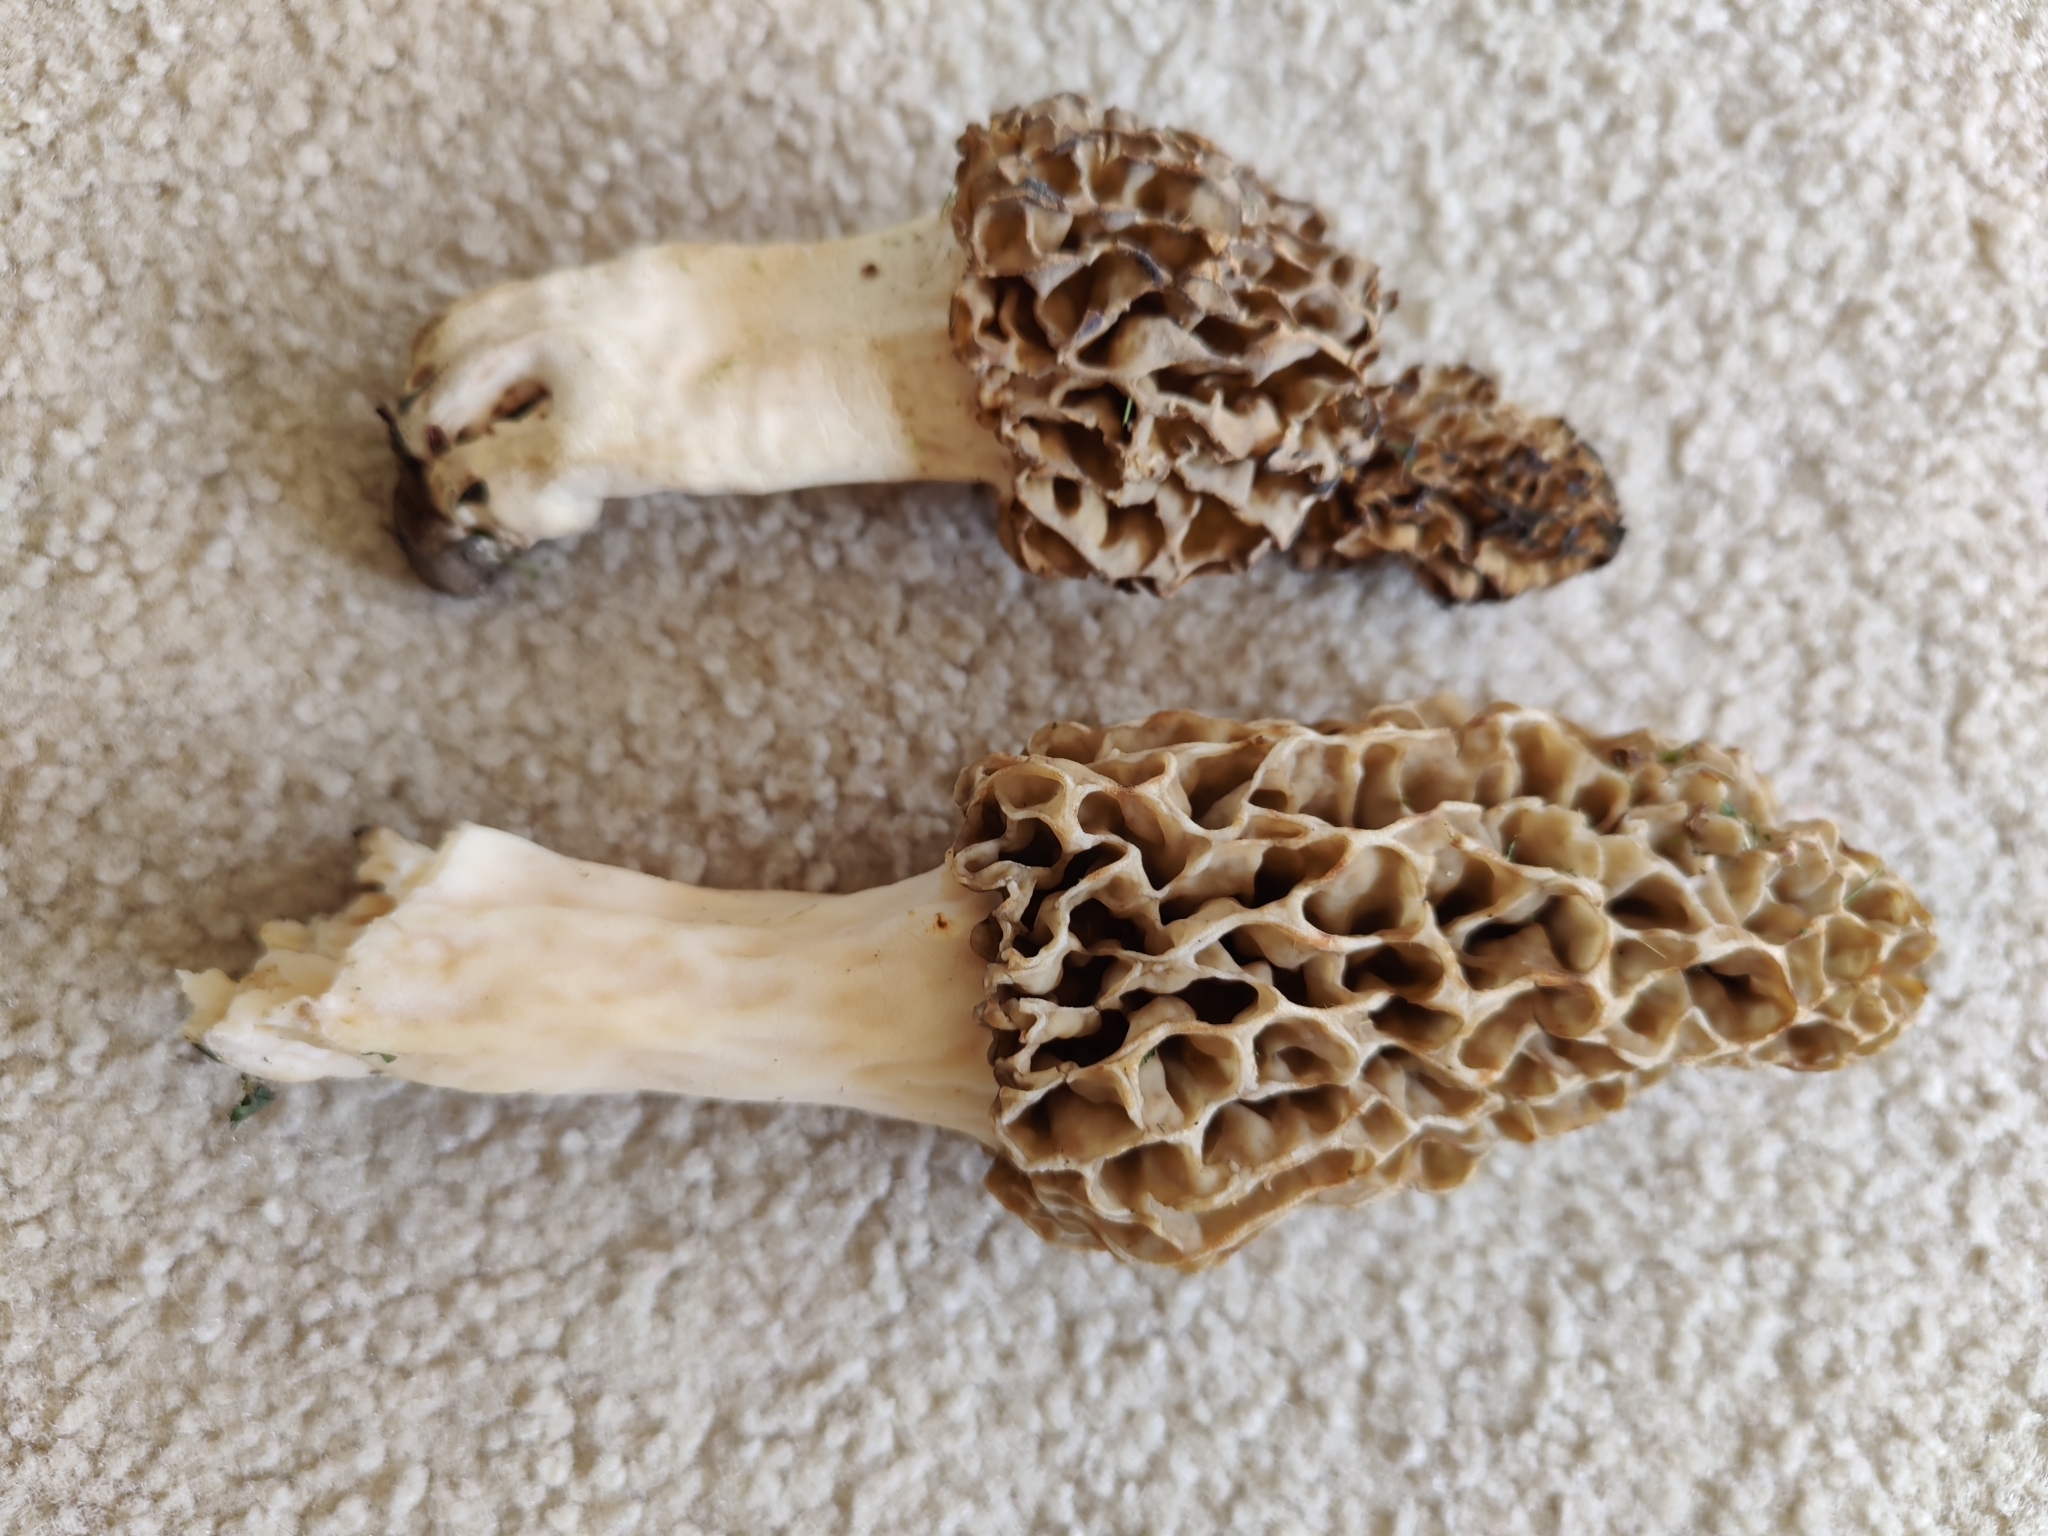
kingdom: Fungi
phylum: Ascomycota
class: Pezizomycetes
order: Pezizales
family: Morchellaceae
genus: Morchella
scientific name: Morchella americana
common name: White morel
